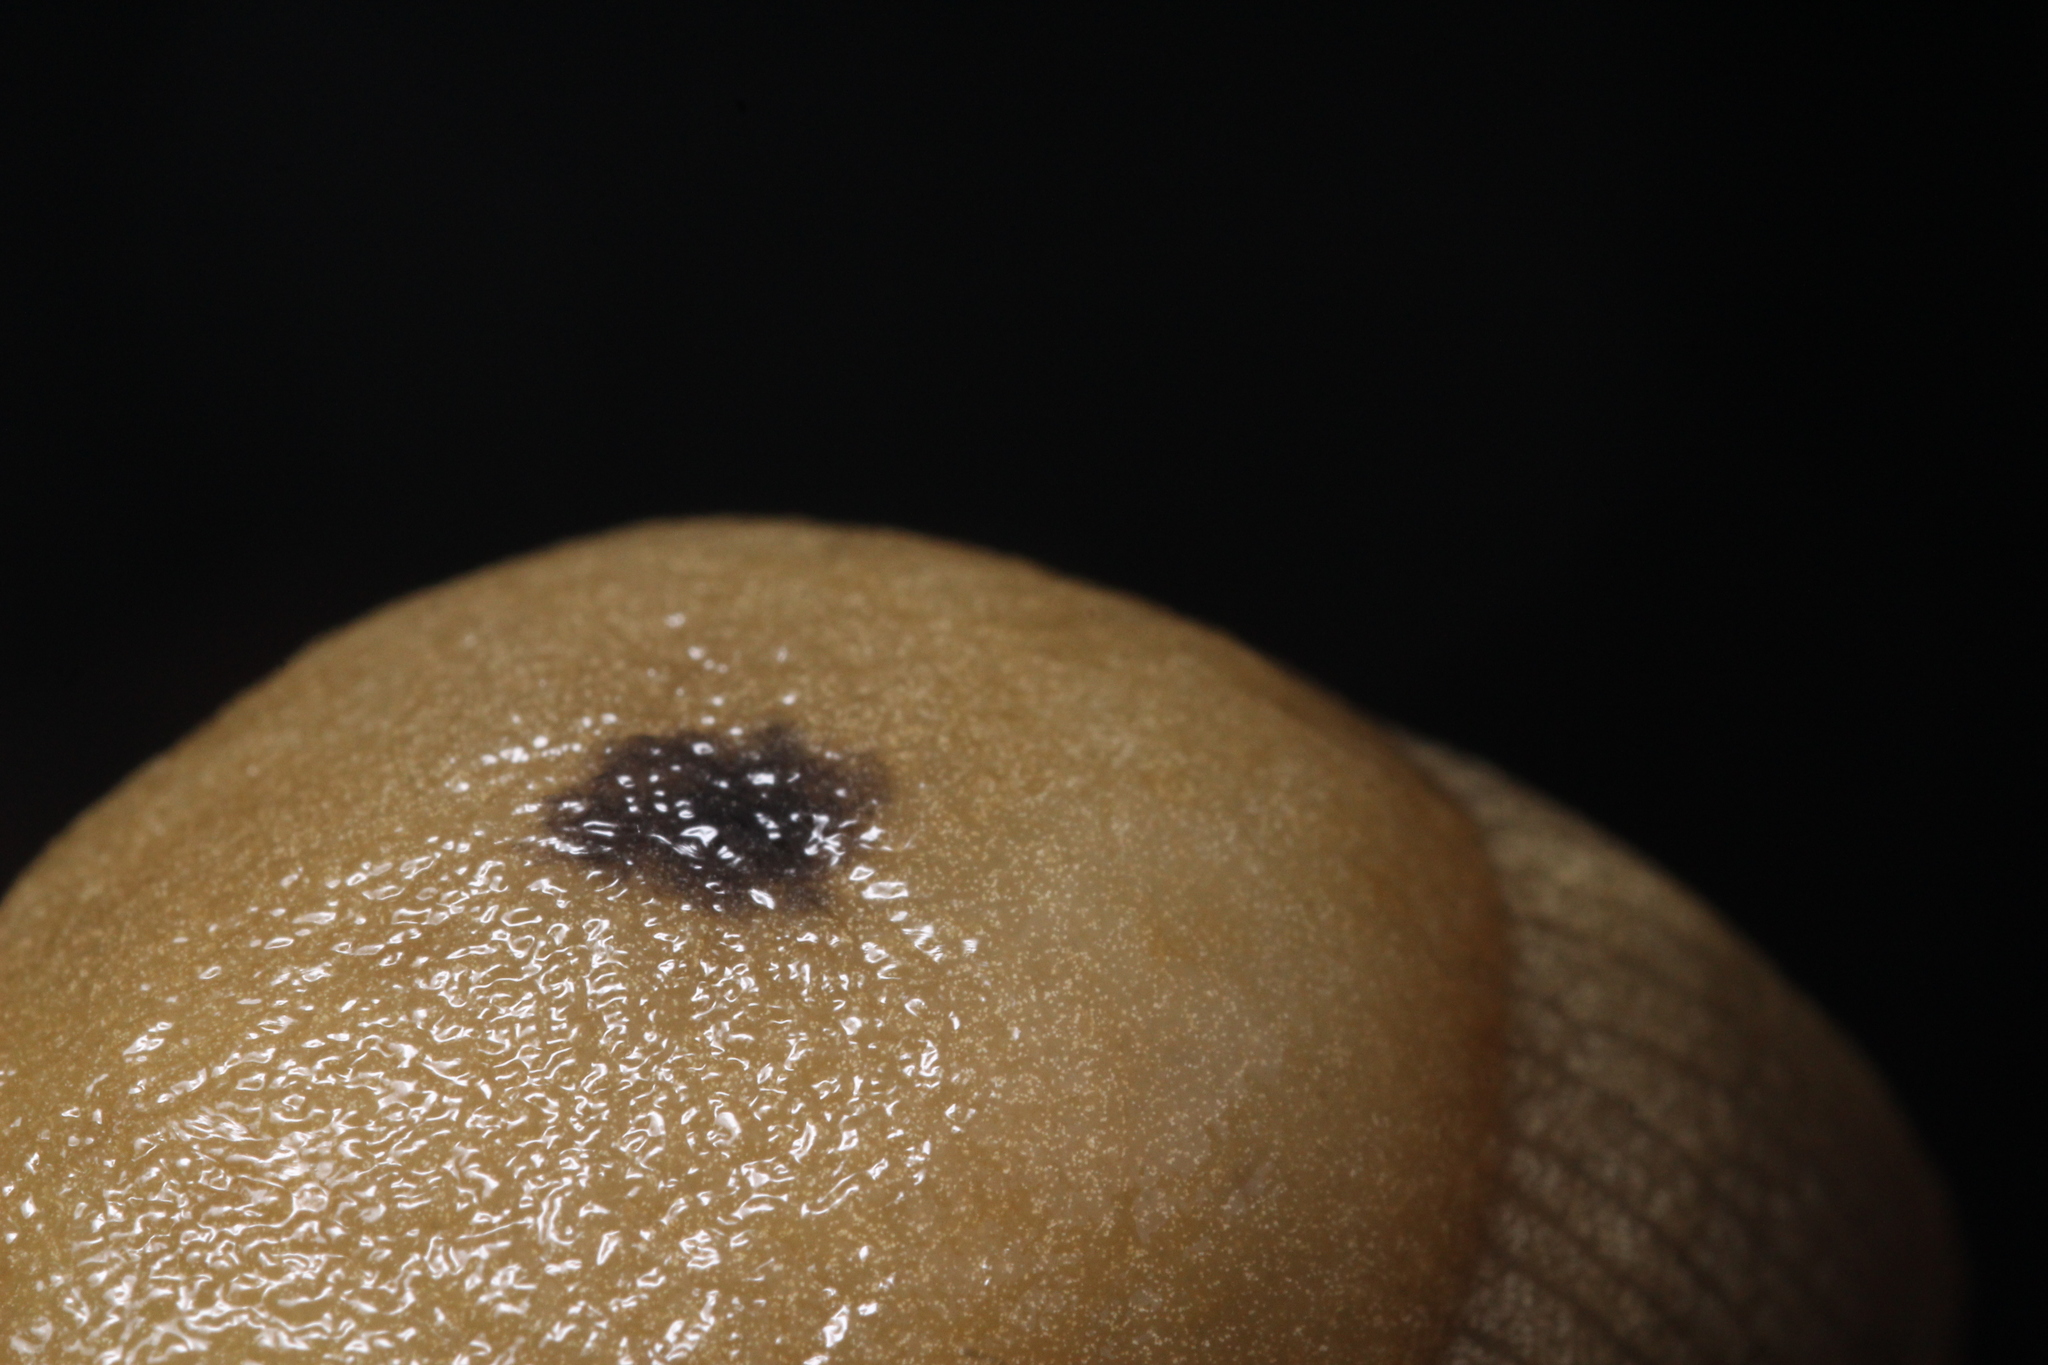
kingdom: Animalia
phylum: Mollusca
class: Gastropoda
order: Stylommatophora
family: Ariolimacidae
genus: Ariolimax
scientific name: Ariolimax buttoni
